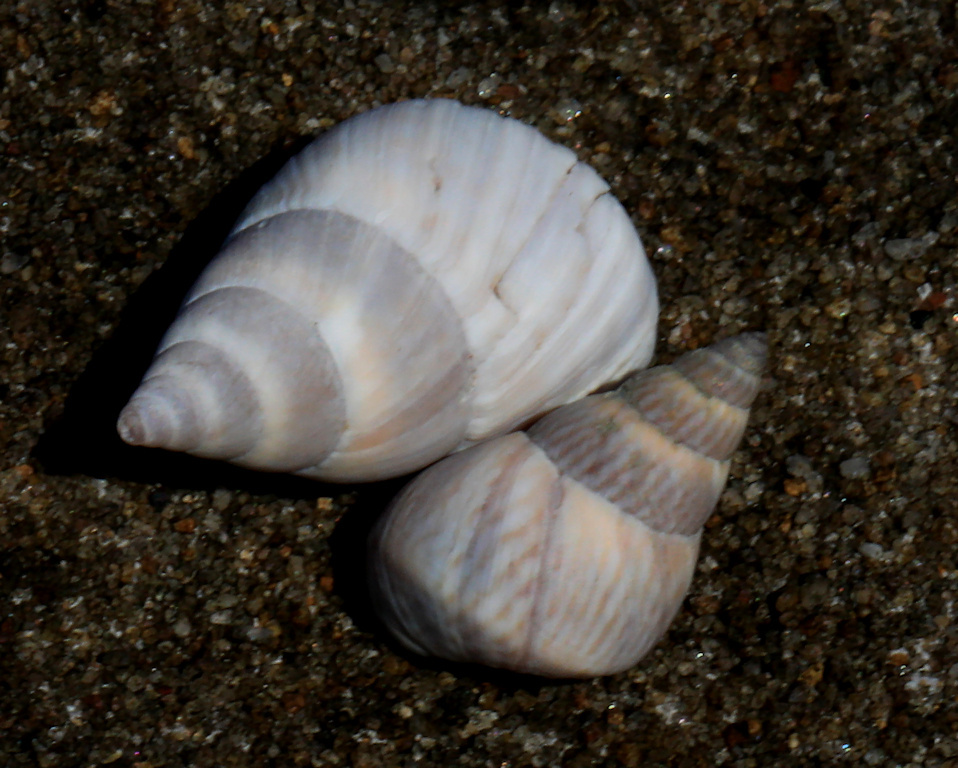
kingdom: Animalia
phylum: Mollusca
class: Gastropoda
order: Littorinimorpha
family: Littorinidae
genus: Littoraria
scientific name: Littoraria coccinea
